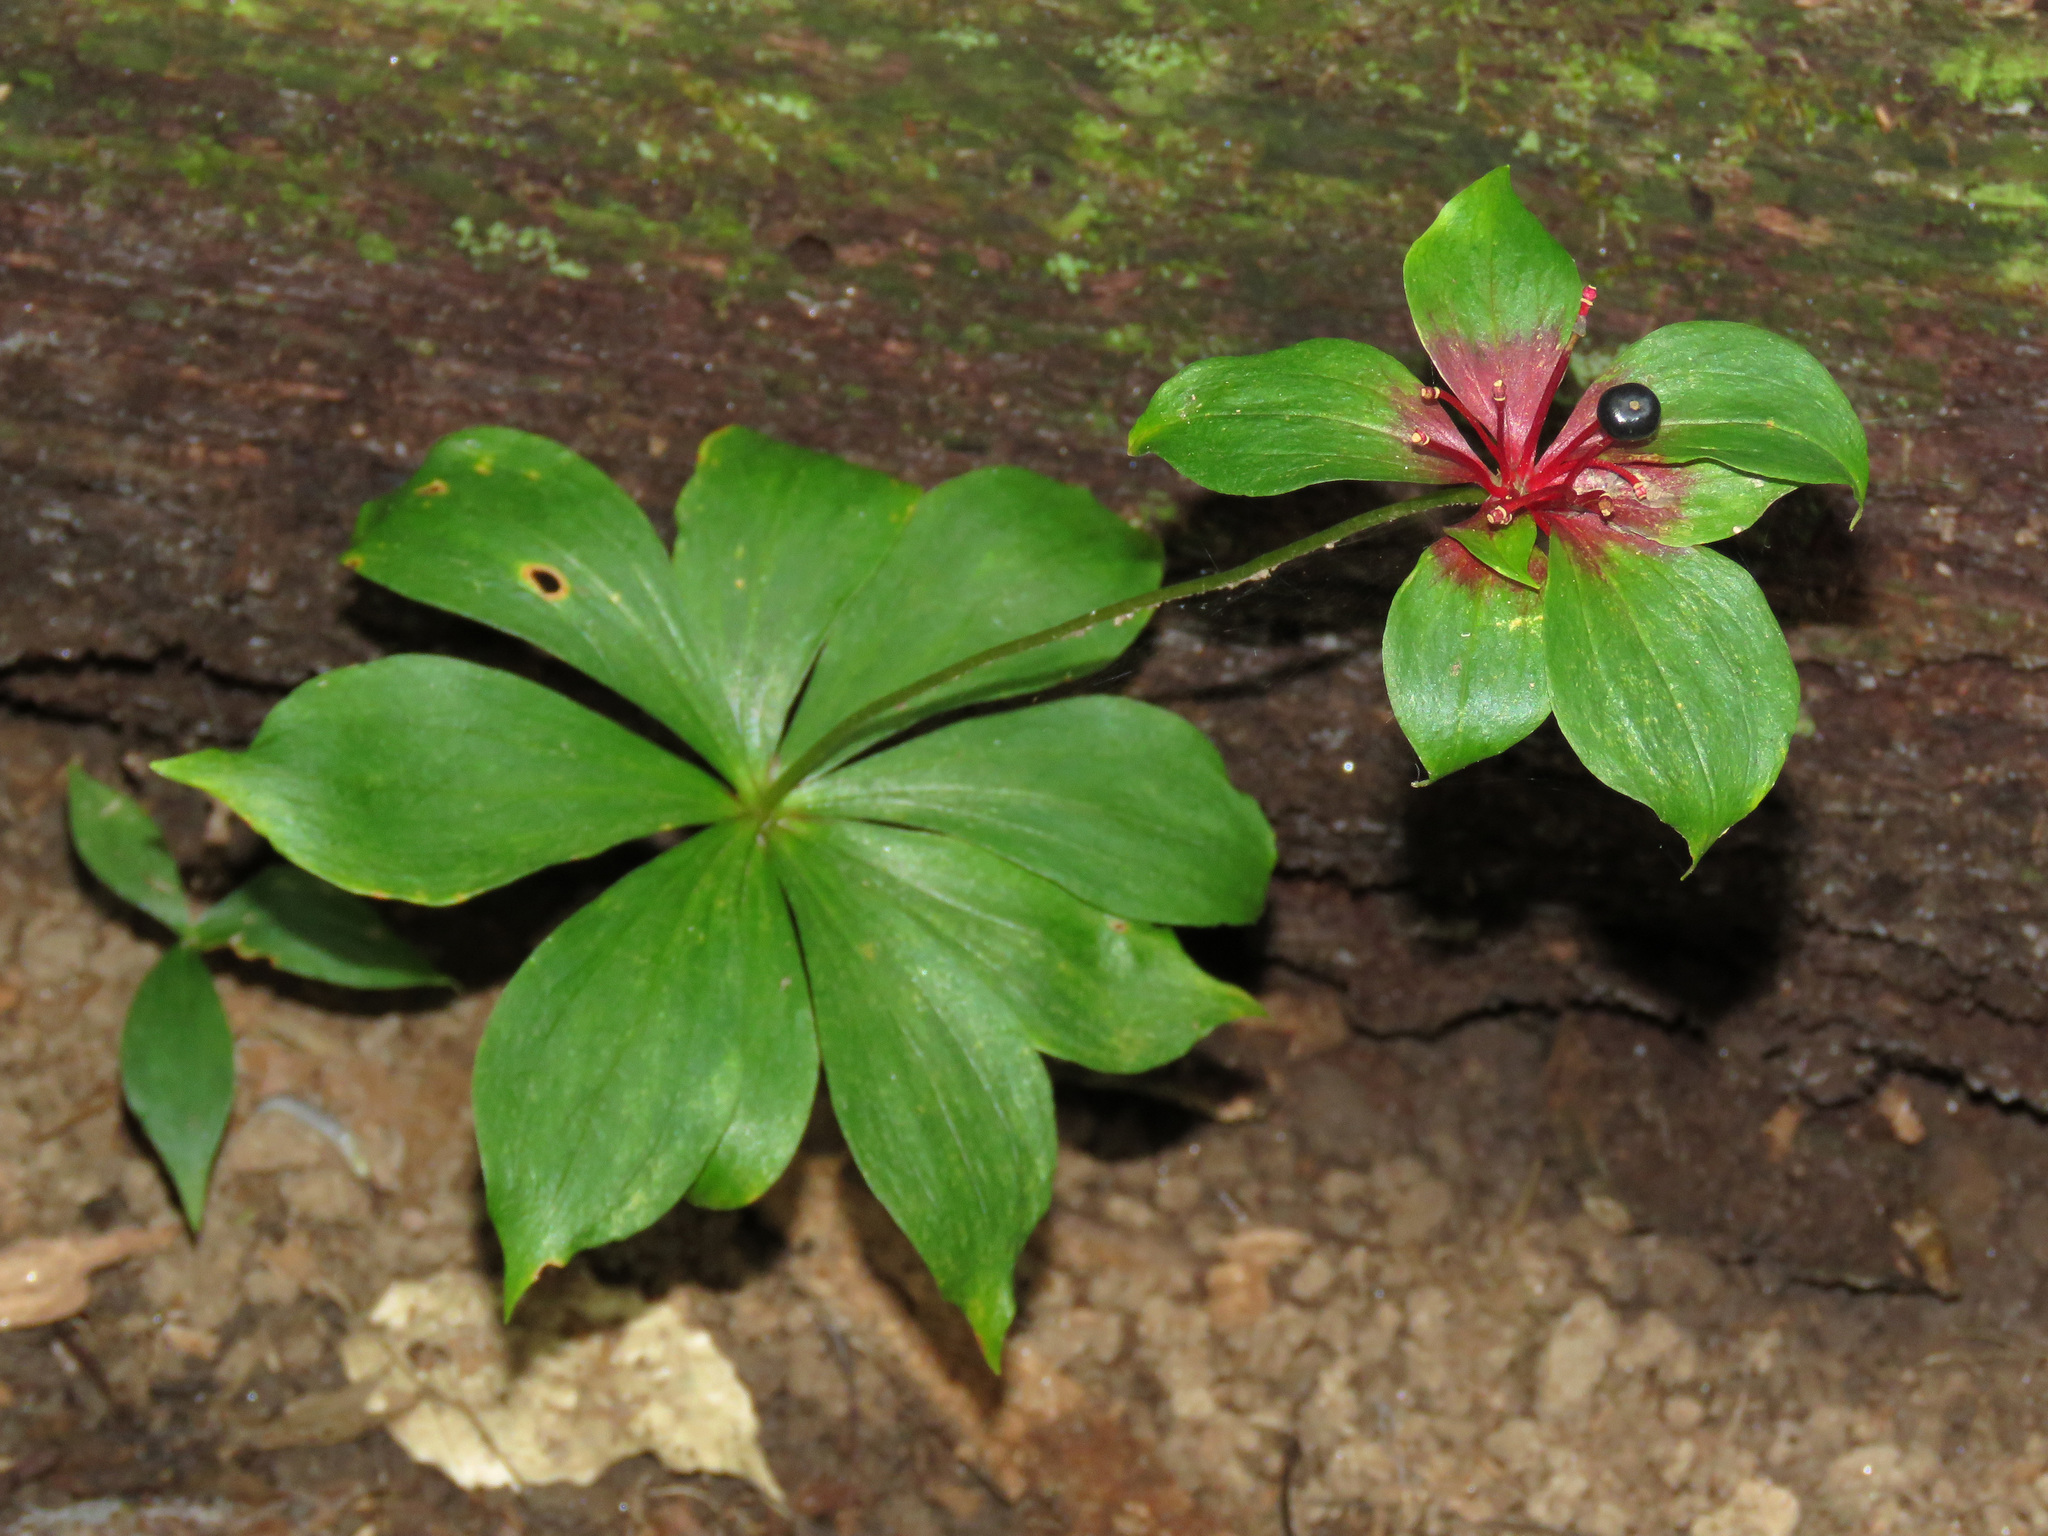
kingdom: Plantae
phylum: Tracheophyta
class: Liliopsida
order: Liliales
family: Liliaceae
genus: Medeola
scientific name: Medeola virginiana
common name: Indian cucumber-root
